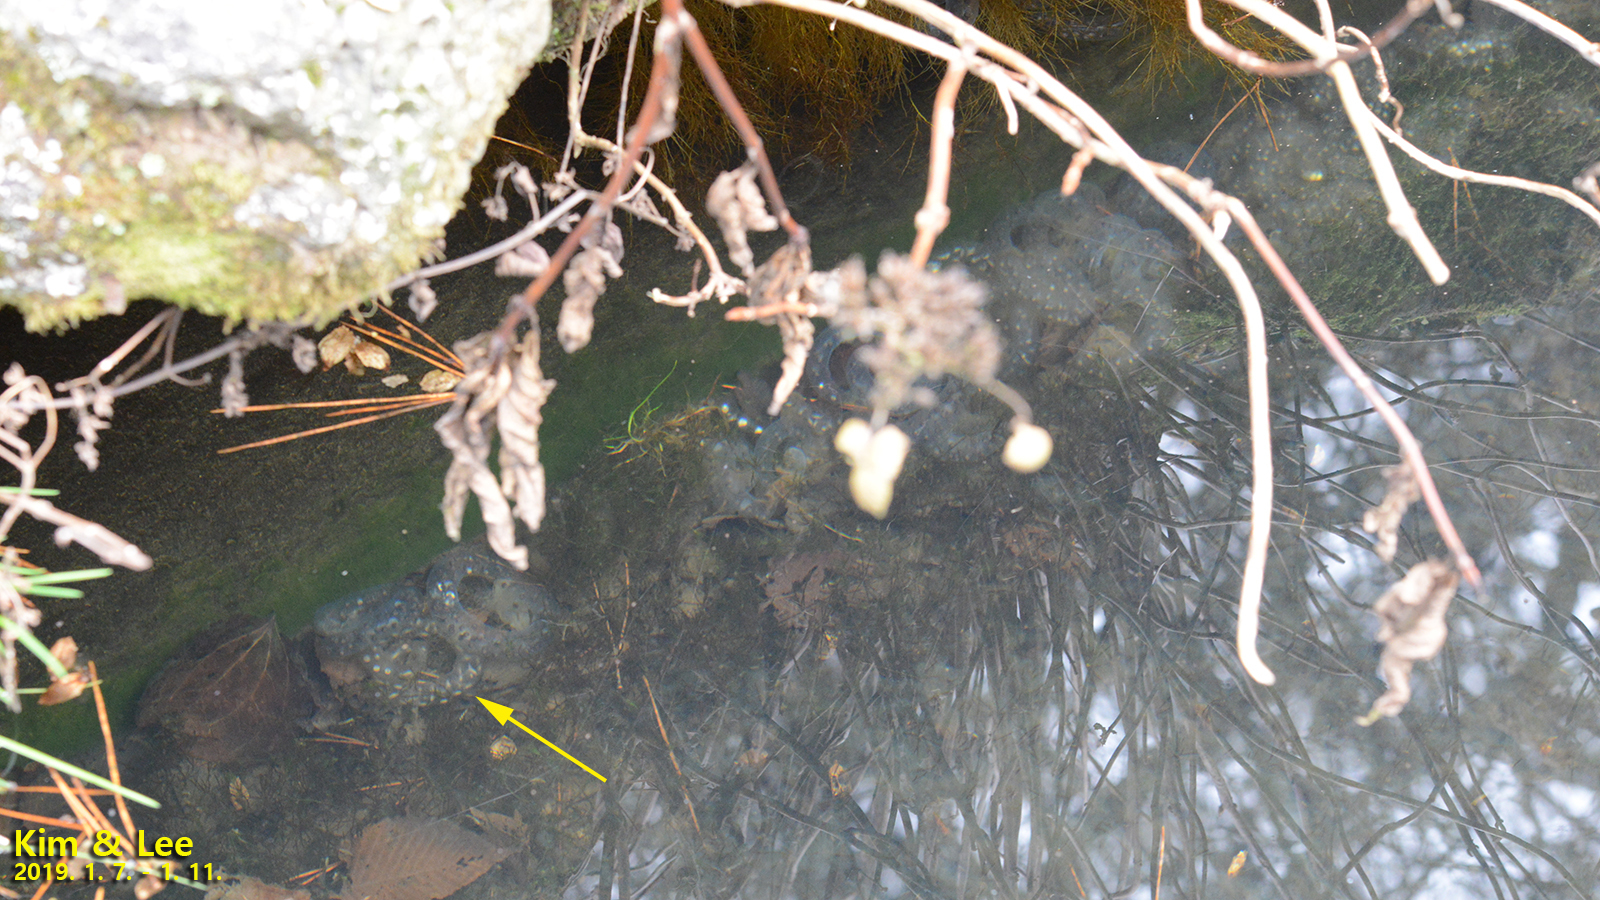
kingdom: Animalia
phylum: Chordata
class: Amphibia
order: Caudata
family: Hynobiidae
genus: Hynobius
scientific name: Hynobius quelpaertensis
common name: Cheju salamander
